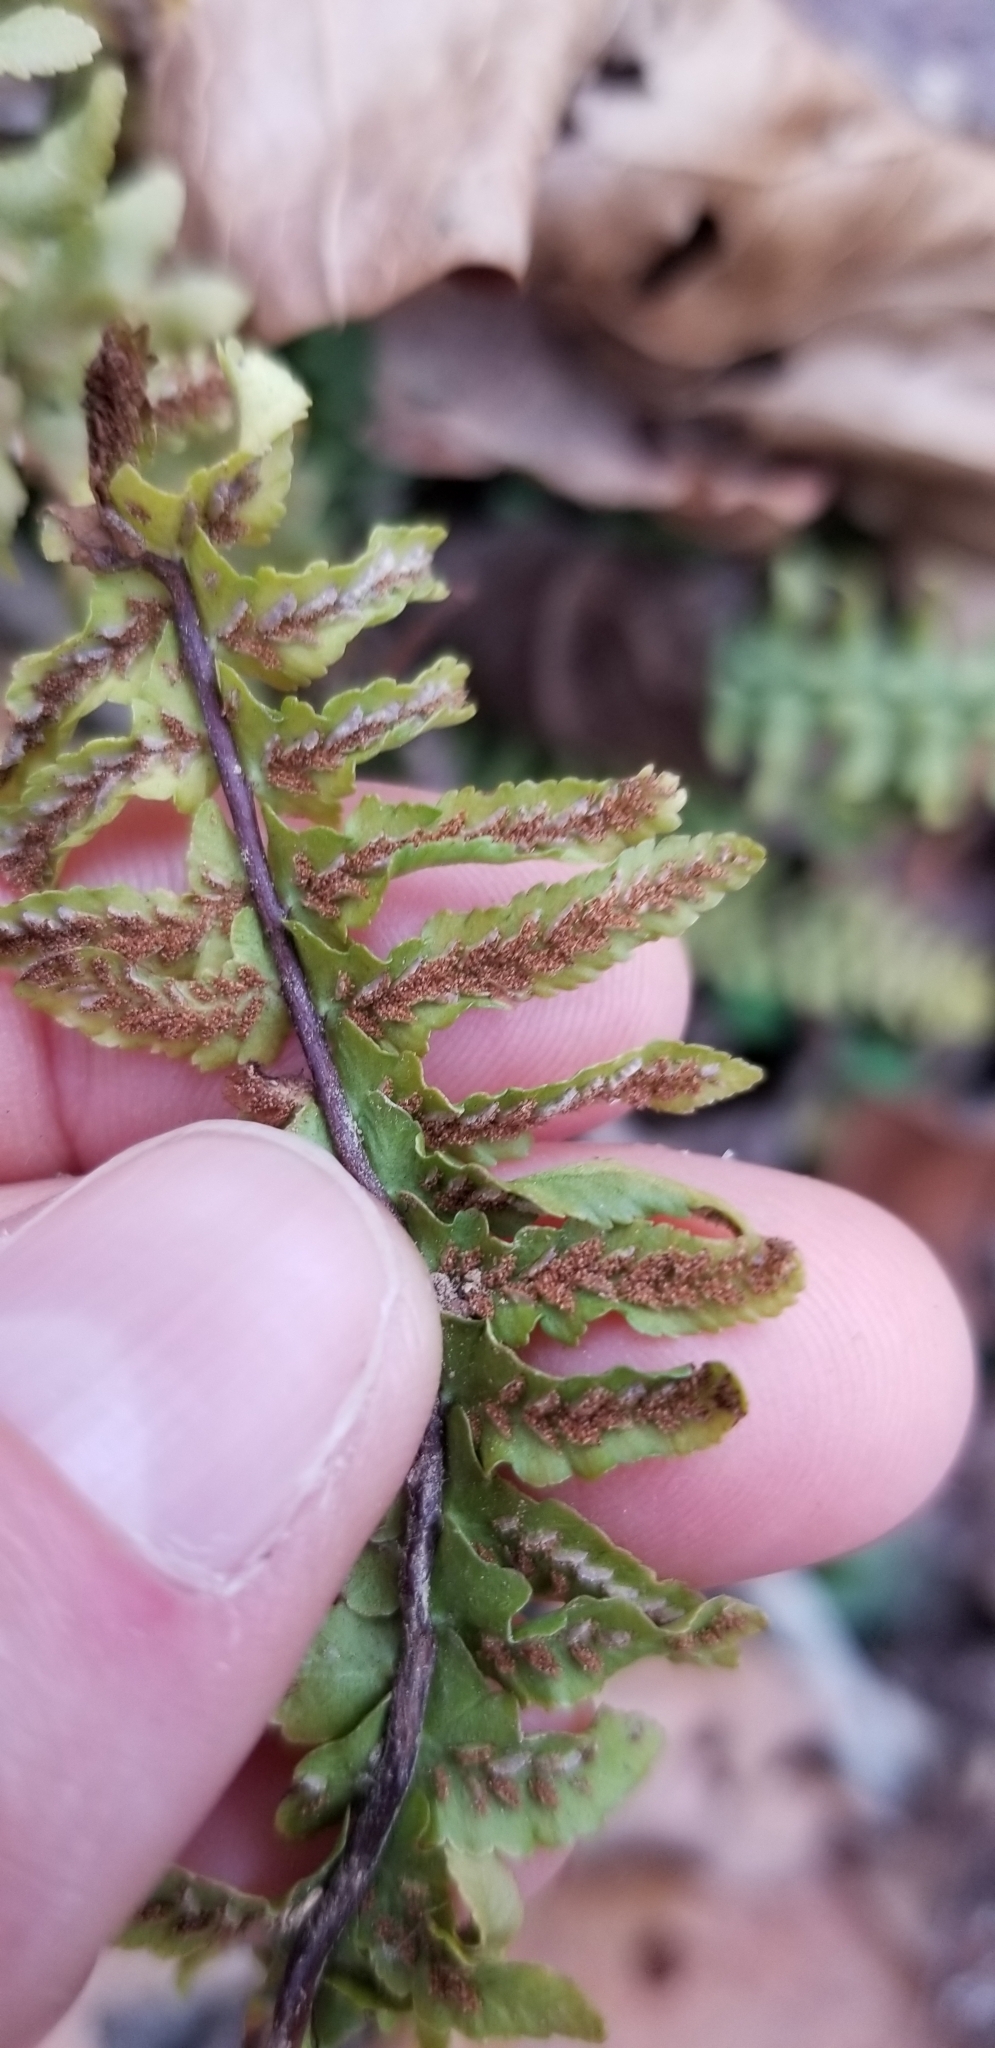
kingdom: Plantae
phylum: Tracheophyta
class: Polypodiopsida
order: Polypodiales
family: Aspleniaceae
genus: Asplenium
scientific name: Asplenium platyneuron
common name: Ebony spleenwort
